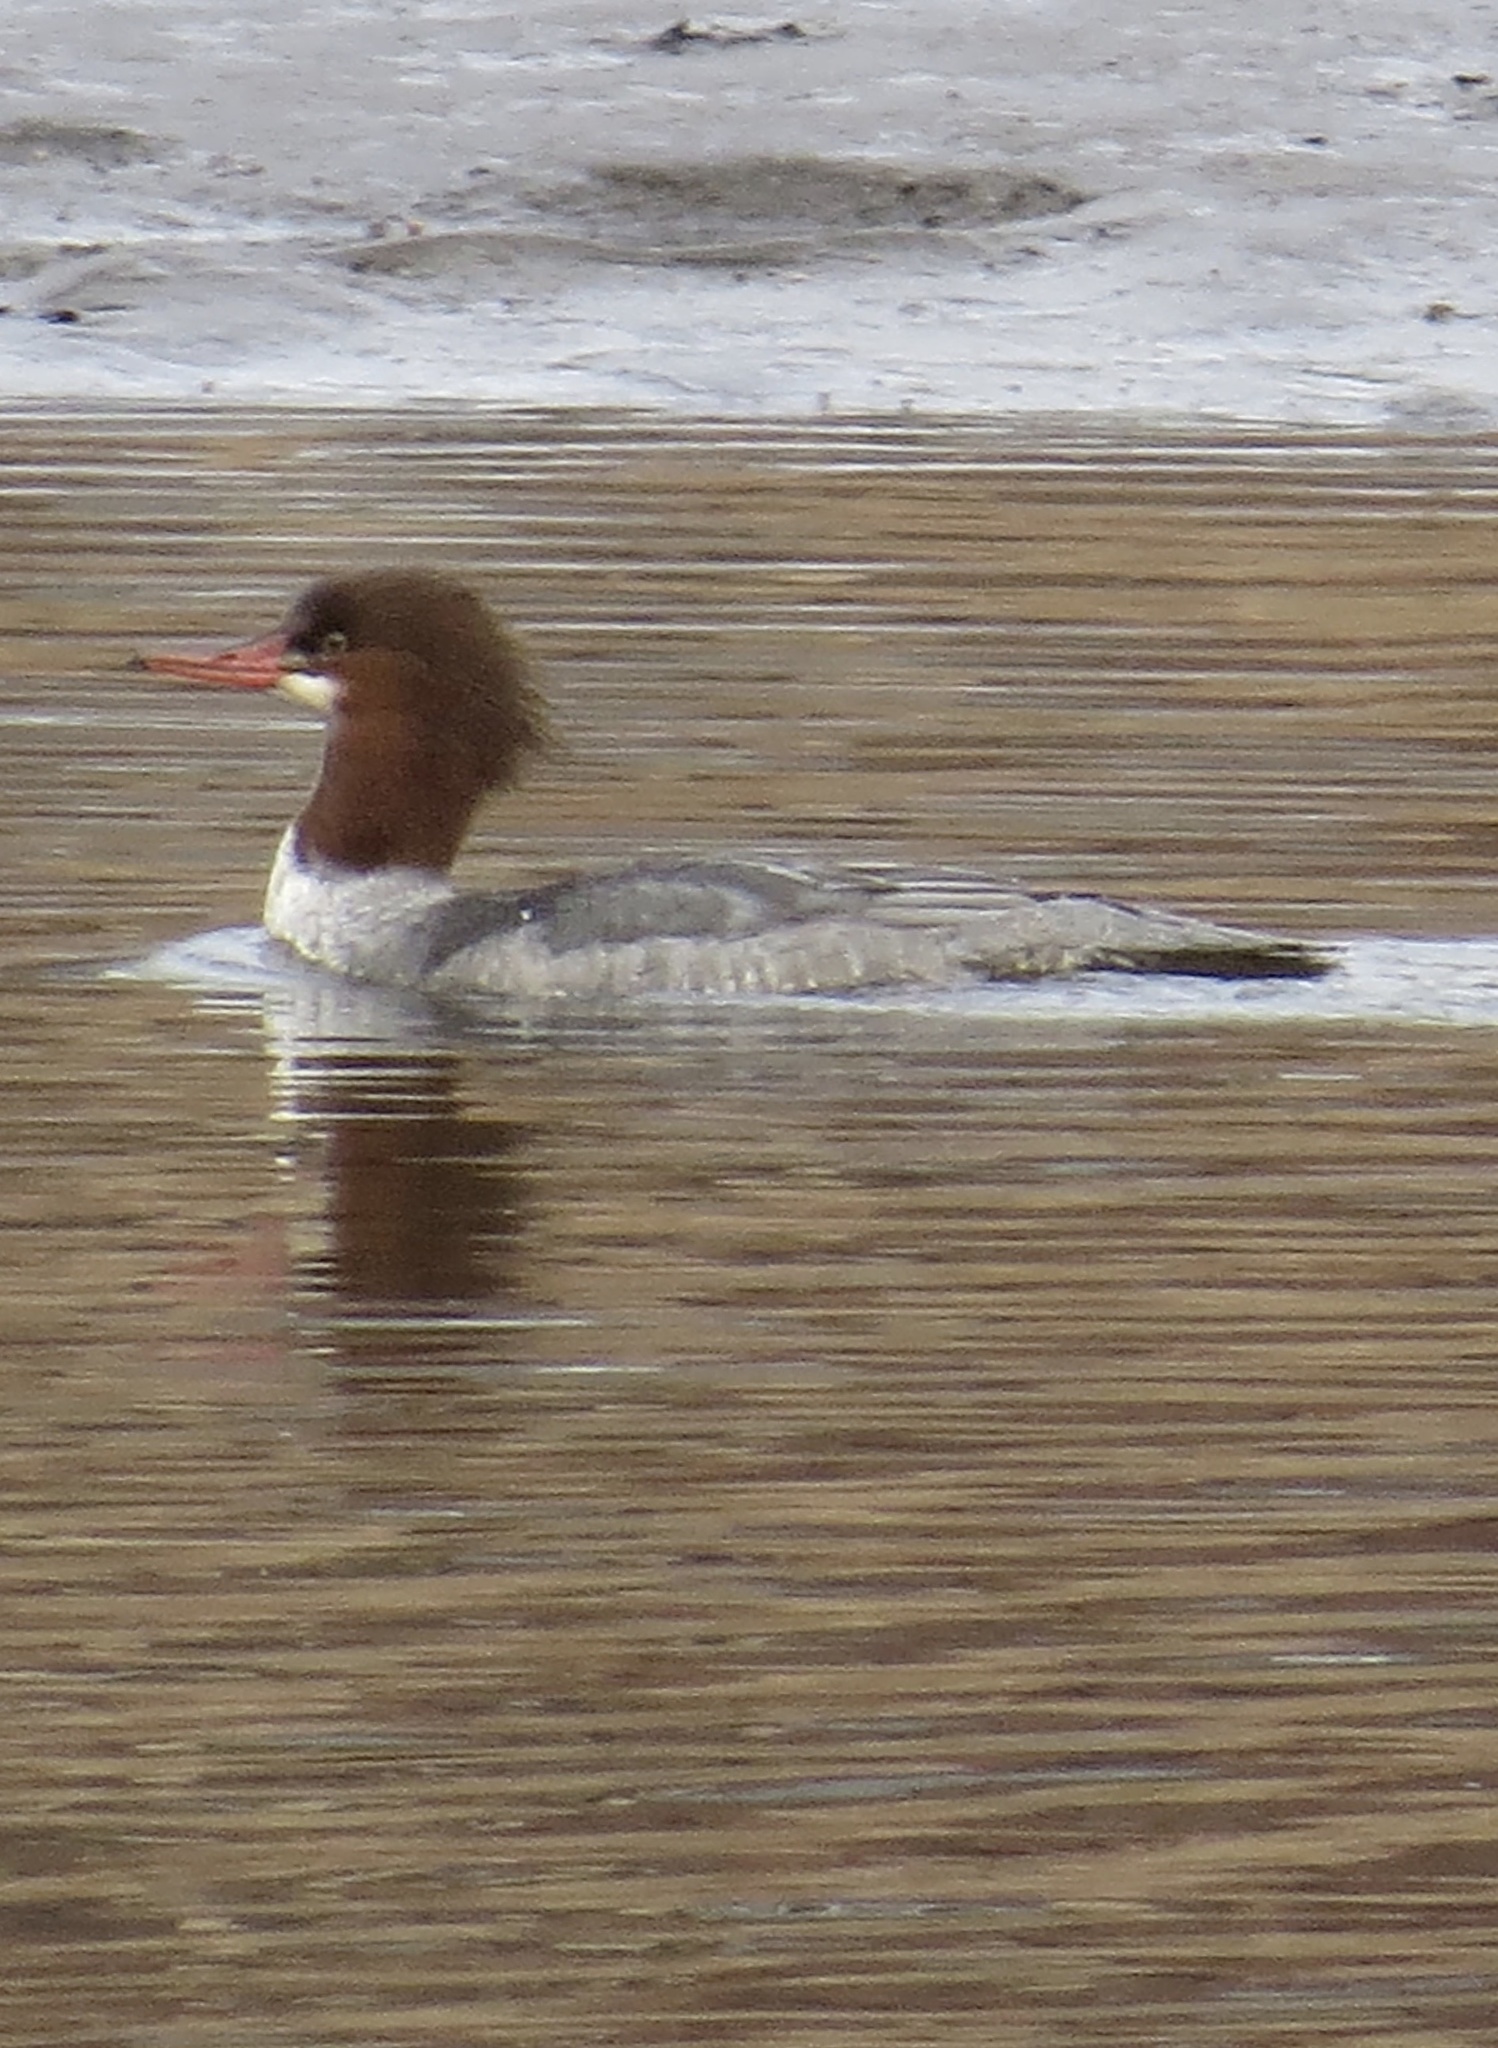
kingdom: Animalia
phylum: Chordata
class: Aves
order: Anseriformes
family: Anatidae
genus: Mergus
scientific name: Mergus merganser
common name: Common merganser
